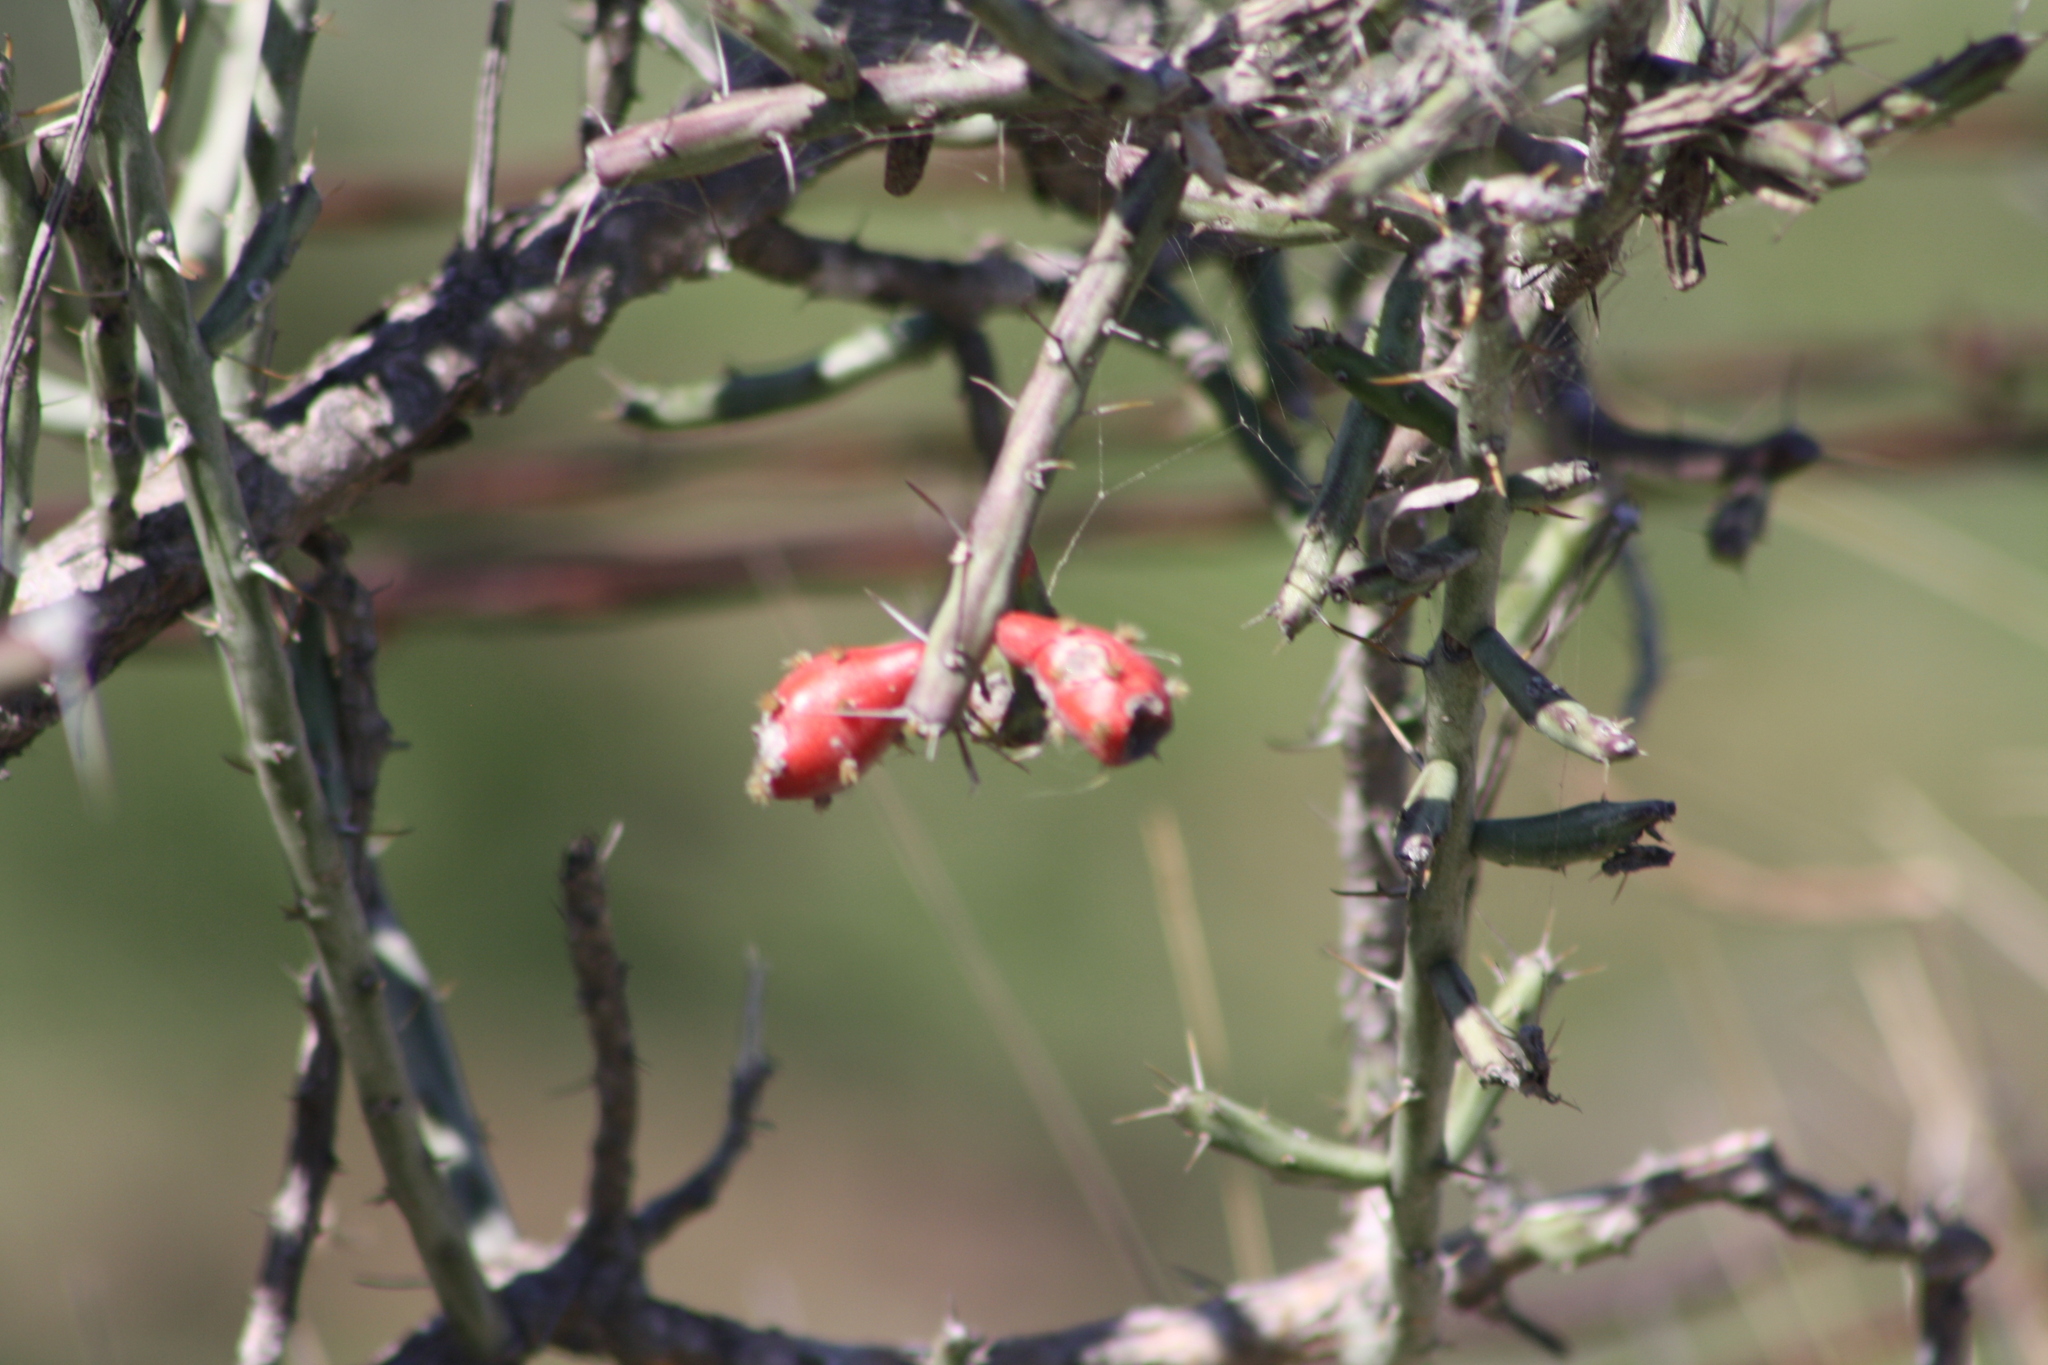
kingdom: Plantae
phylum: Tracheophyta
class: Magnoliopsida
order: Caryophyllales
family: Cactaceae
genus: Cylindropuntia
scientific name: Cylindropuntia leptocaulis
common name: Christmas cactus
